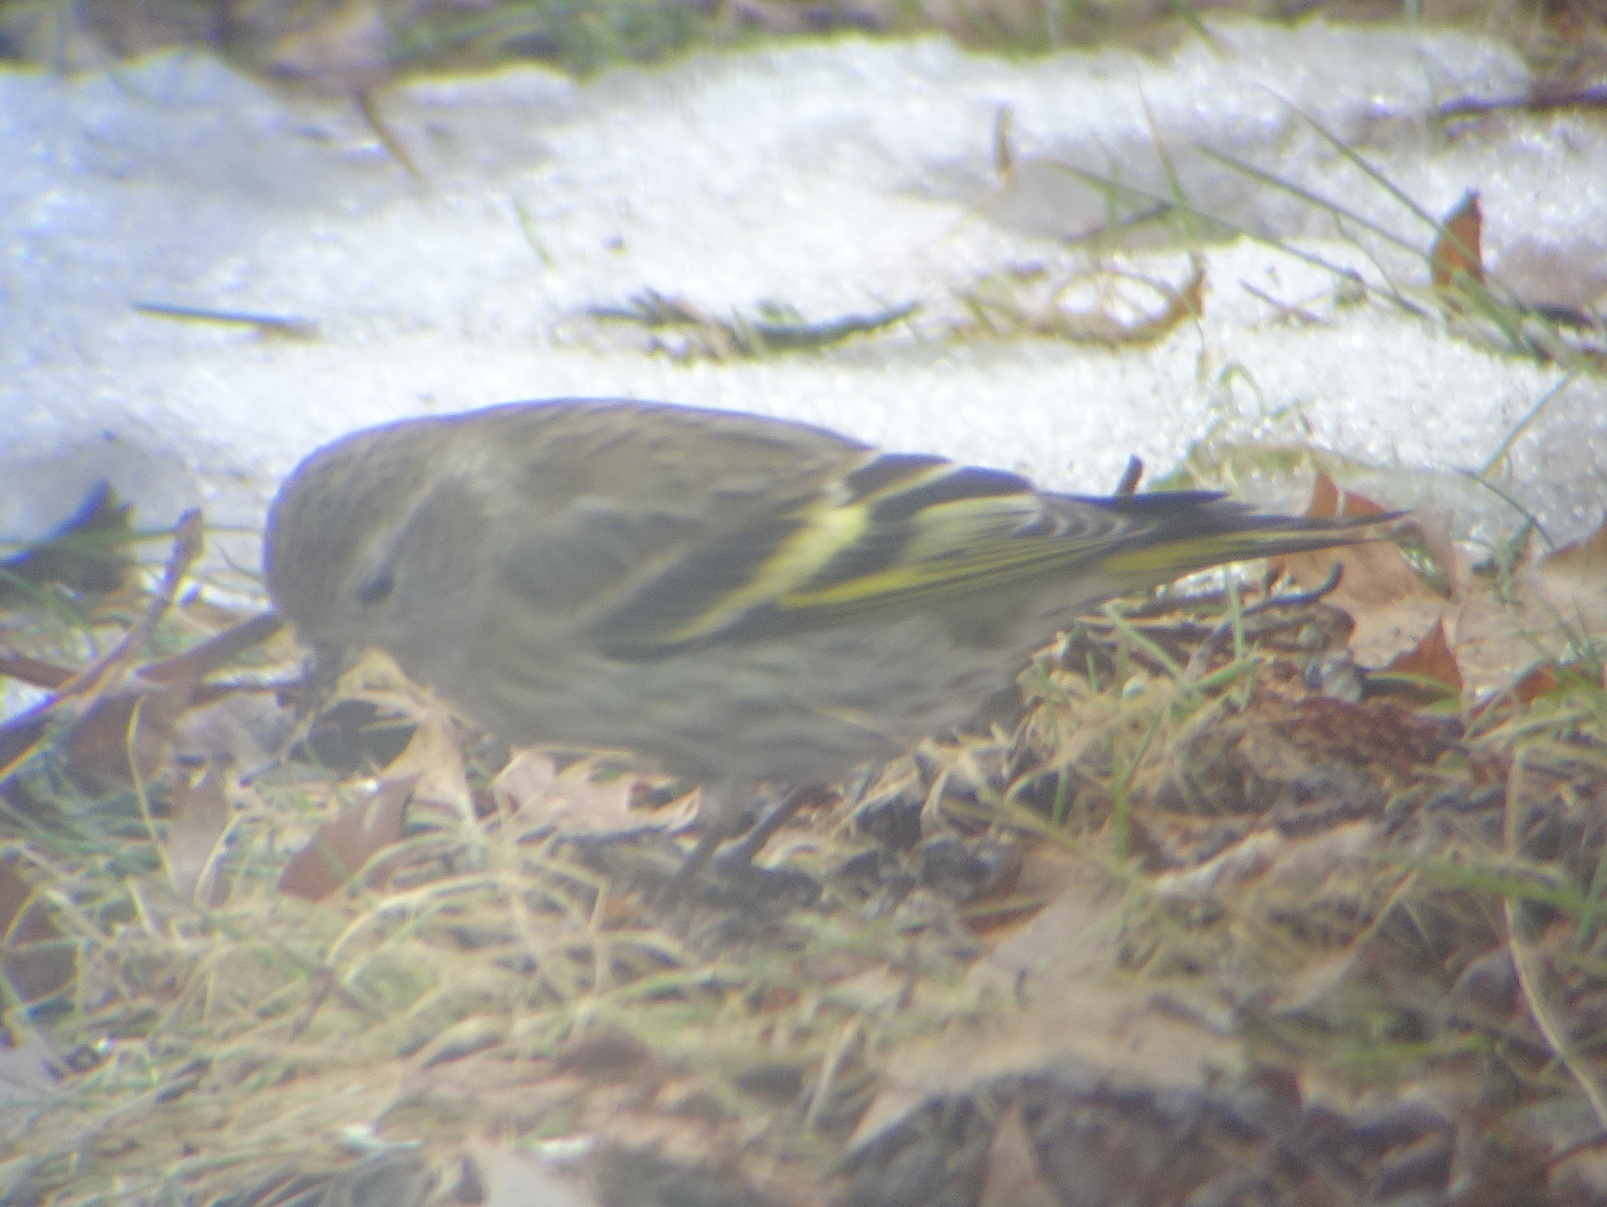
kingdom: Animalia
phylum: Chordata
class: Aves
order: Passeriformes
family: Fringillidae
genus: Spinus
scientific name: Spinus pinus
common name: Pine siskin
